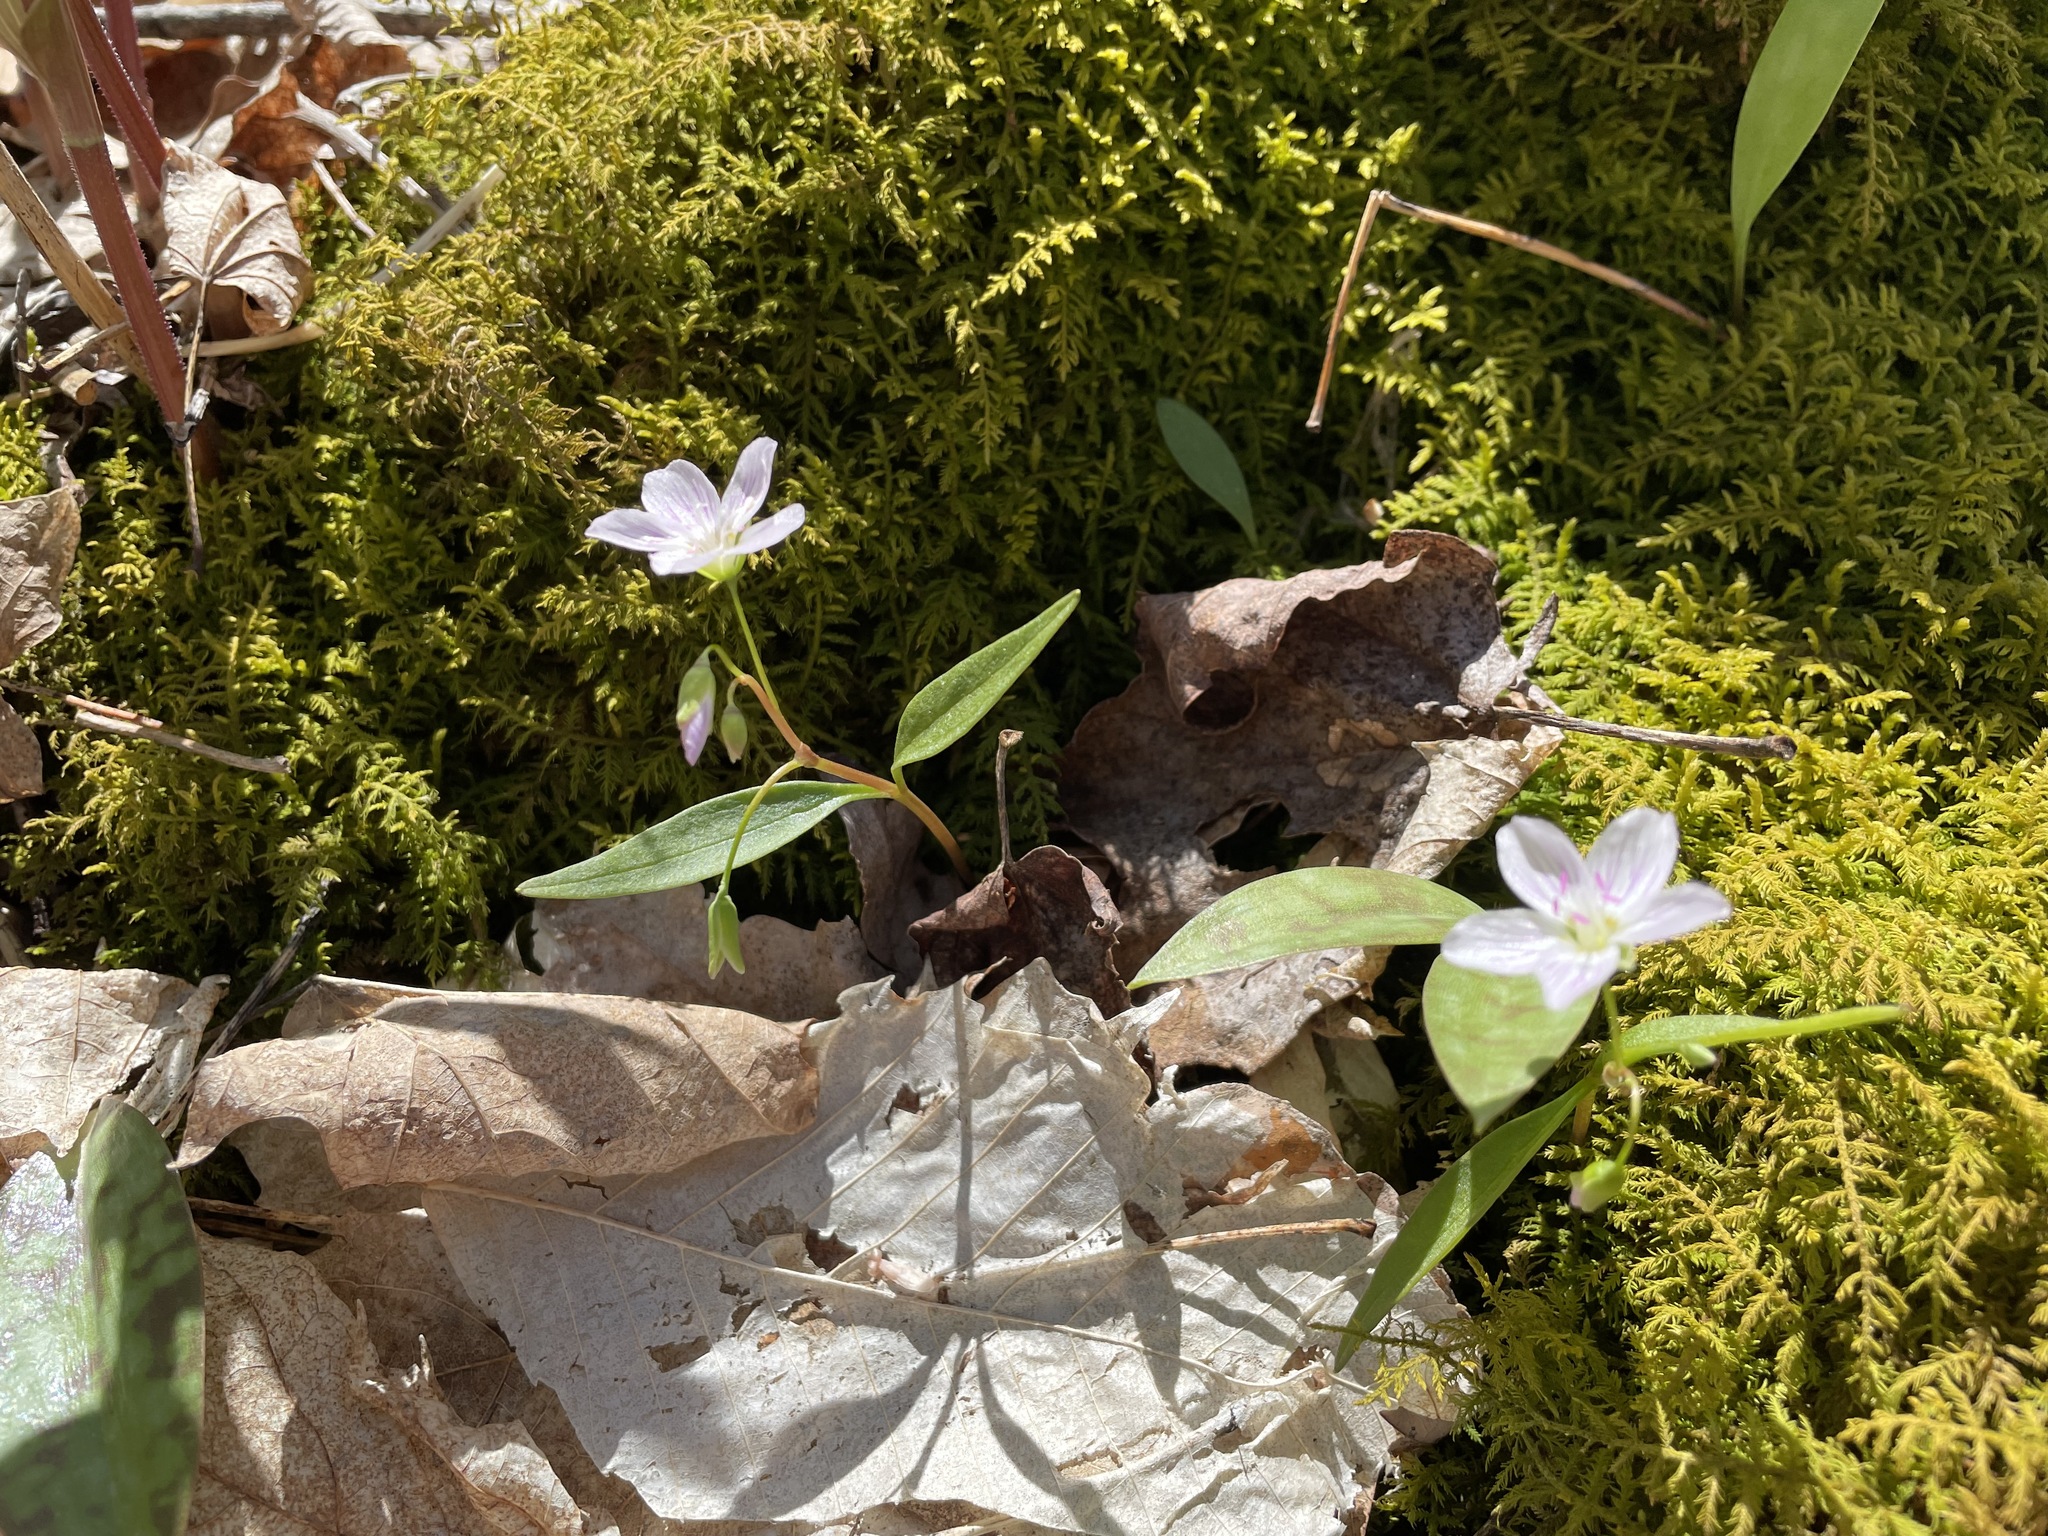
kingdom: Plantae
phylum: Tracheophyta
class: Magnoliopsida
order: Caryophyllales
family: Montiaceae
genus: Claytonia
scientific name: Claytonia caroliniana
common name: Carolina spring beauty
